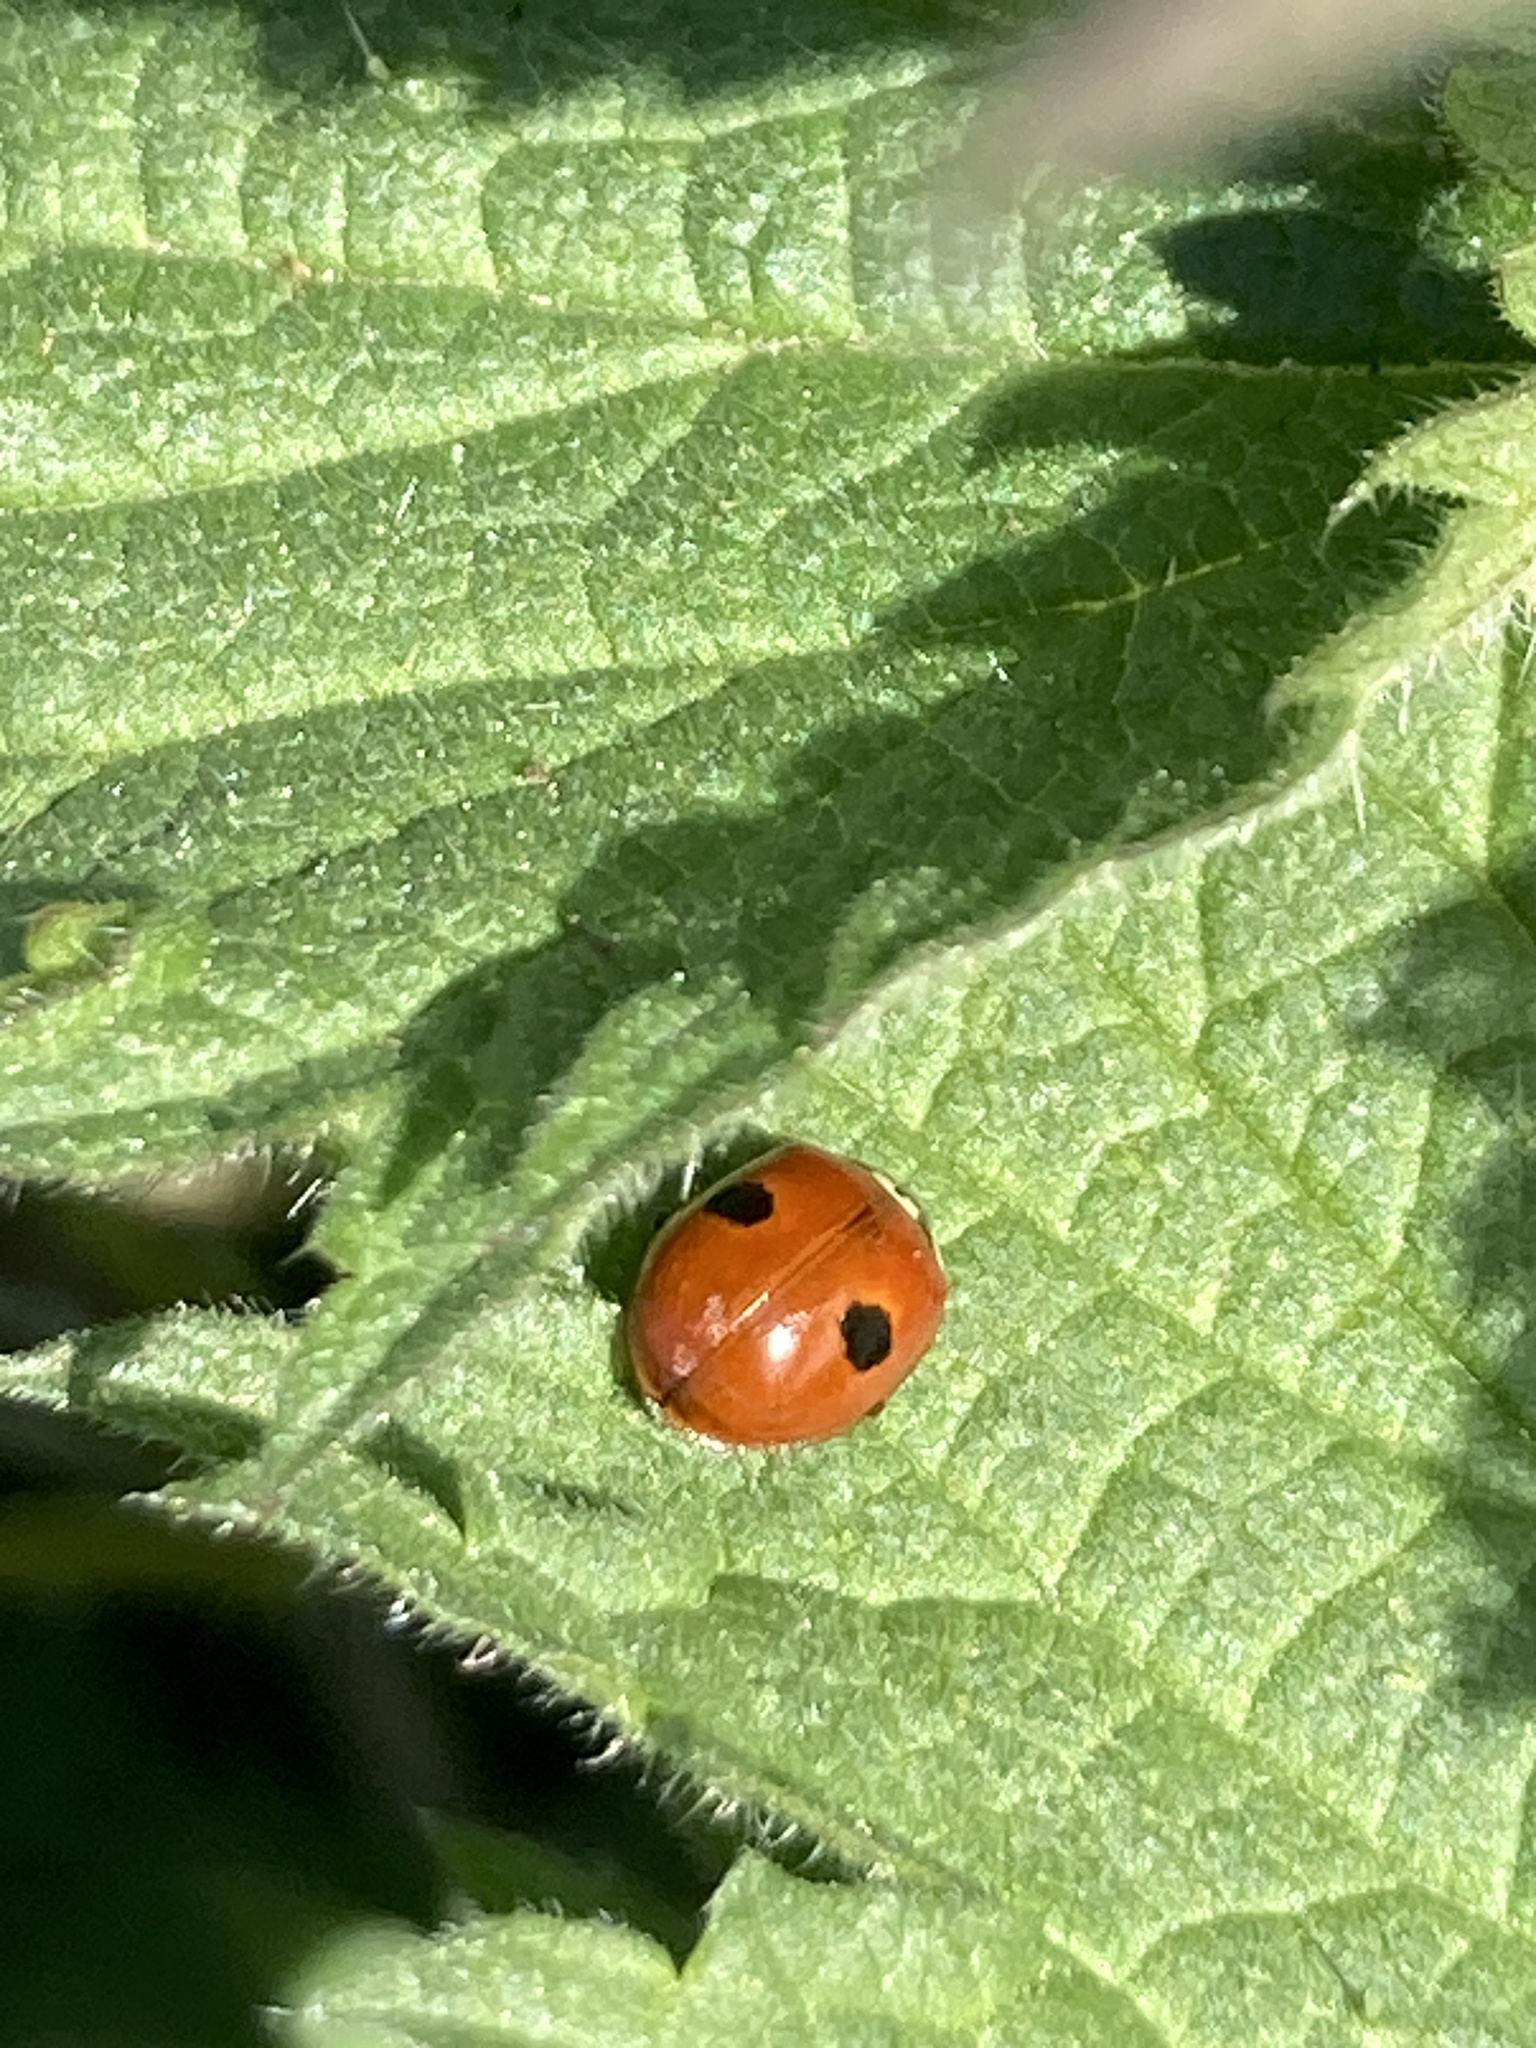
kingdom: Animalia
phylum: Arthropoda
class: Insecta
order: Coleoptera
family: Coccinellidae
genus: Adalia
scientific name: Adalia bipunctata
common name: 2-spot ladybird
